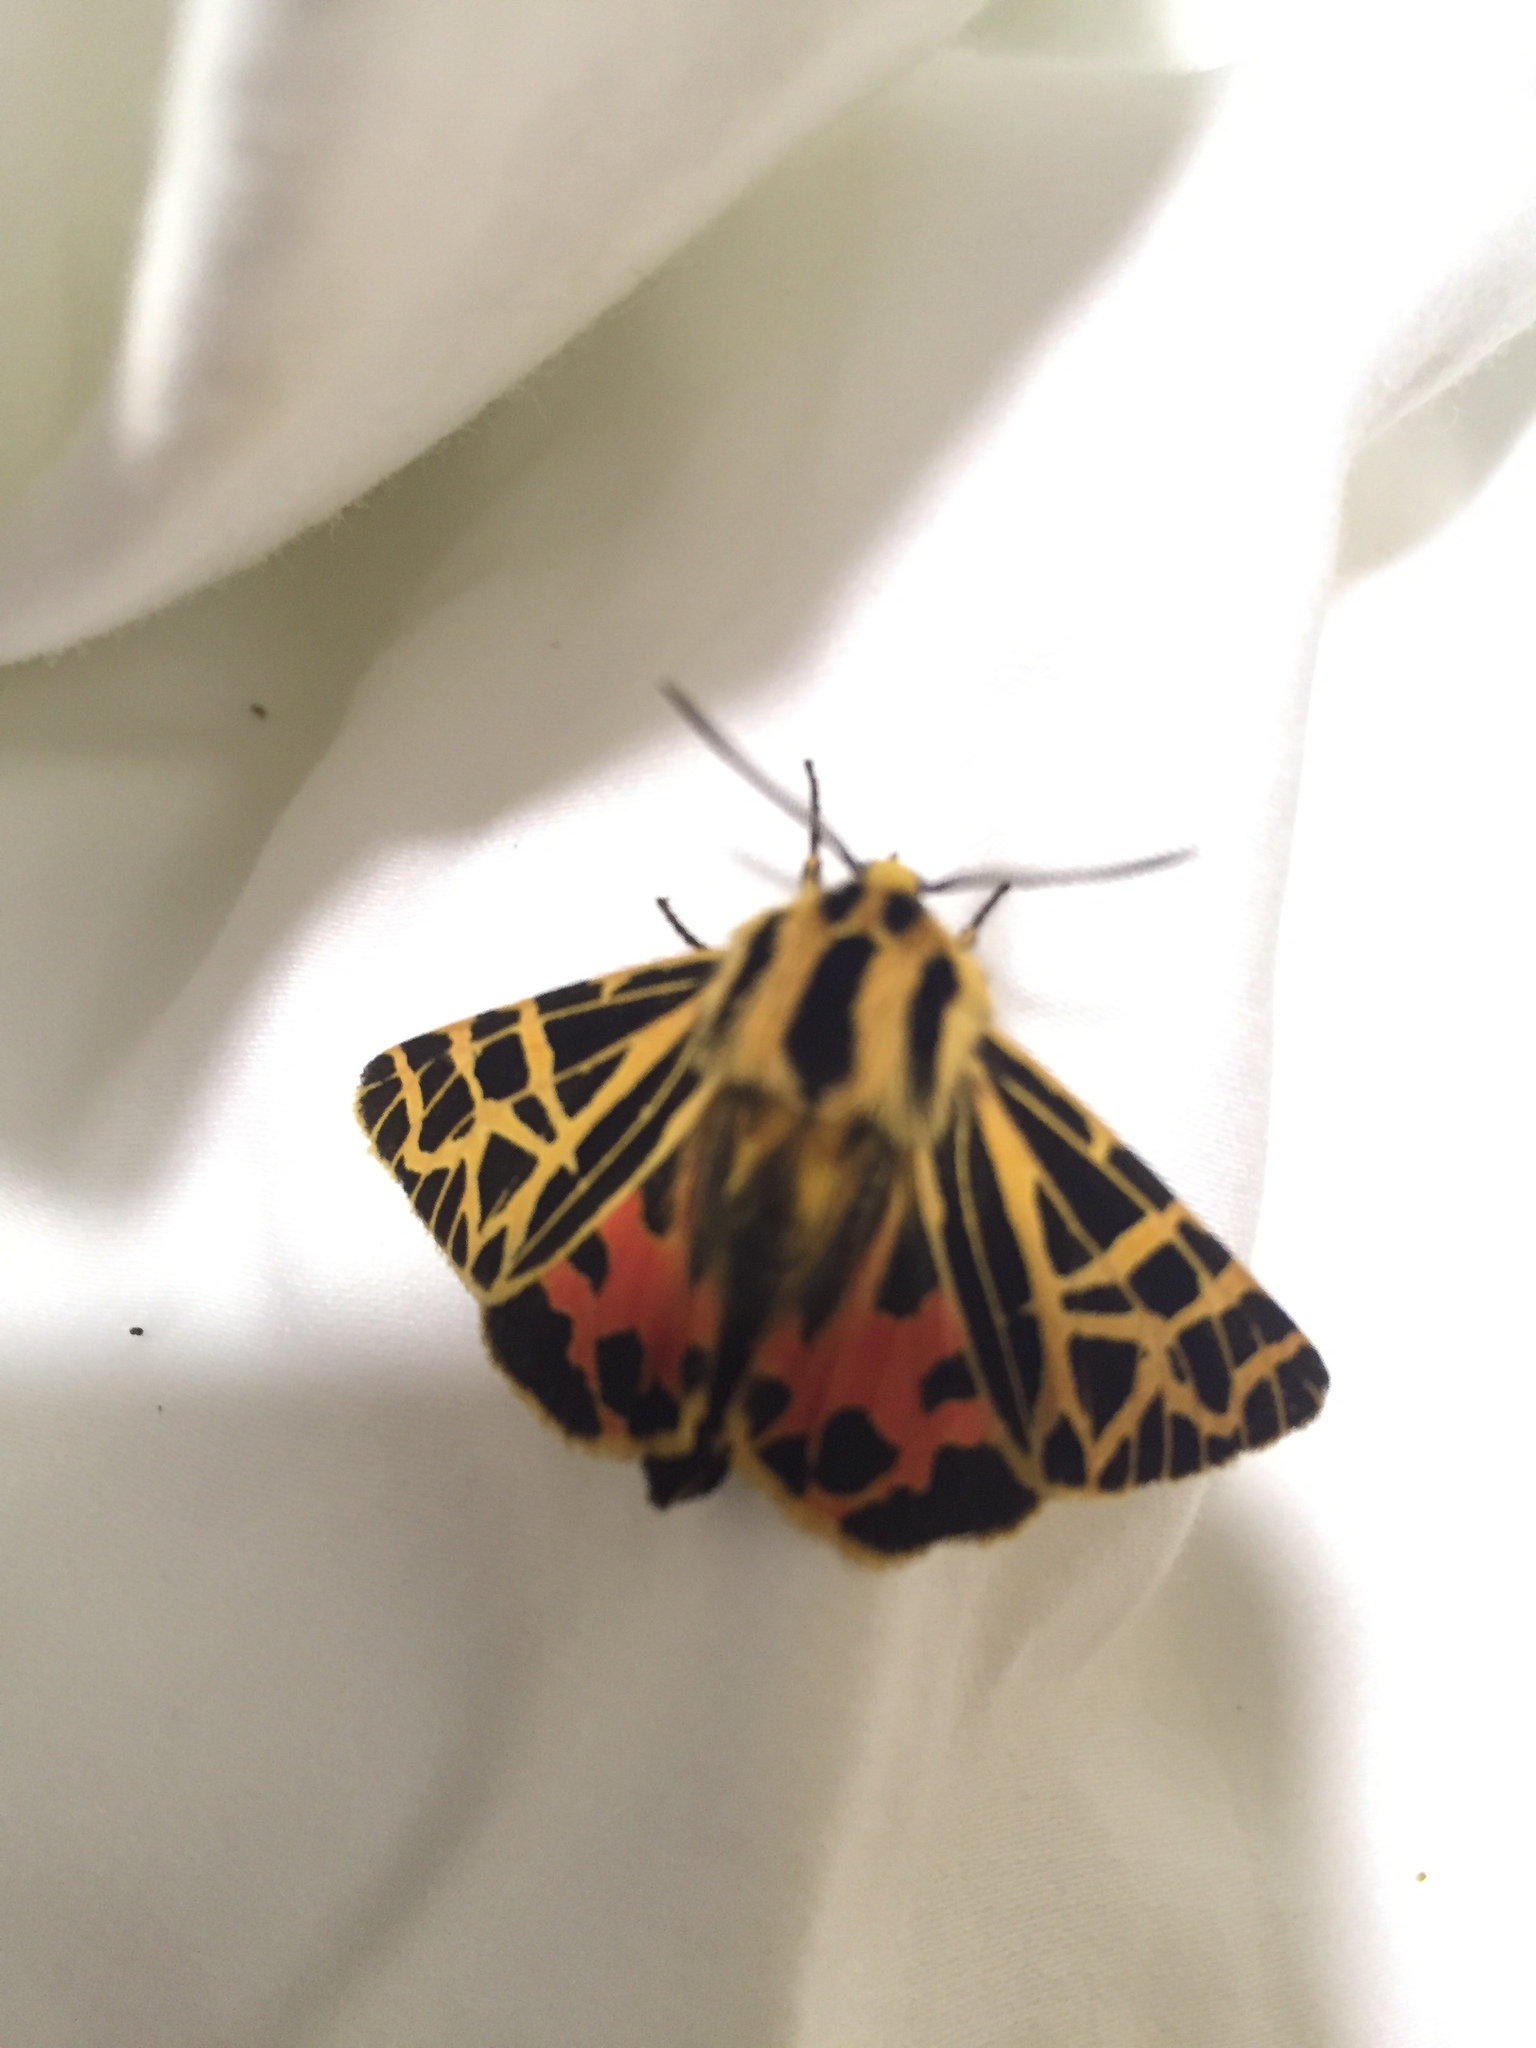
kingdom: Animalia
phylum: Arthropoda
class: Insecta
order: Lepidoptera
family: Erebidae
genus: Apantesis
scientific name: Apantesis
